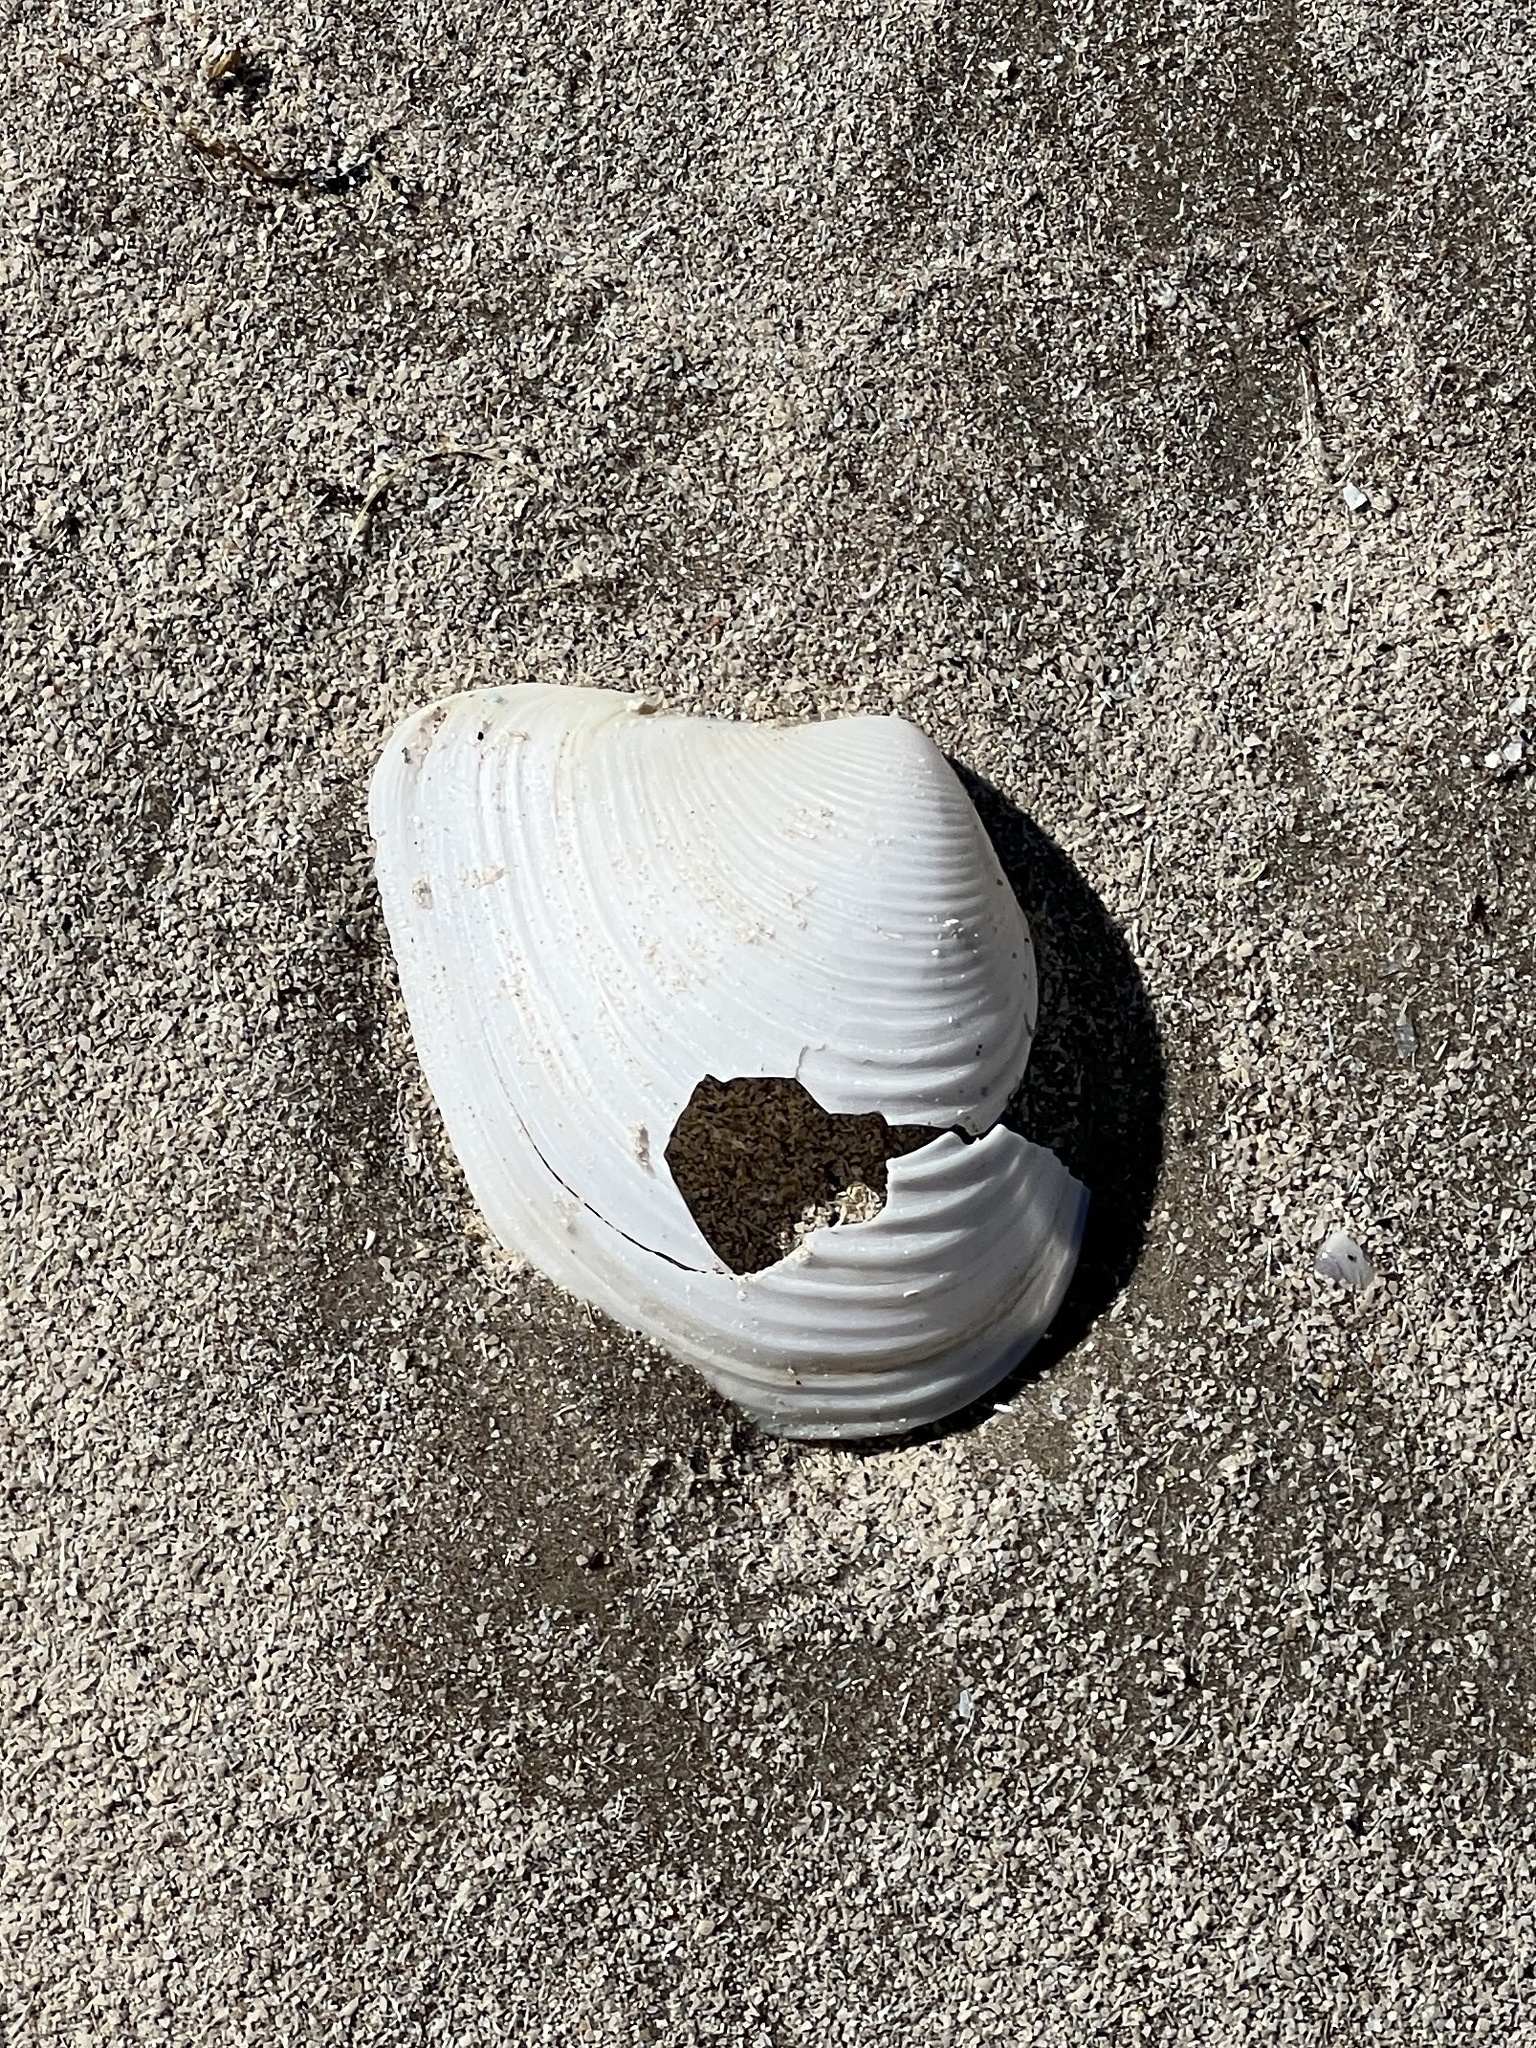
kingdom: Animalia
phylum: Mollusca
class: Bivalvia
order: Venerida
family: Anatinellidae
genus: Raeta
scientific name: Raeta plicatella
